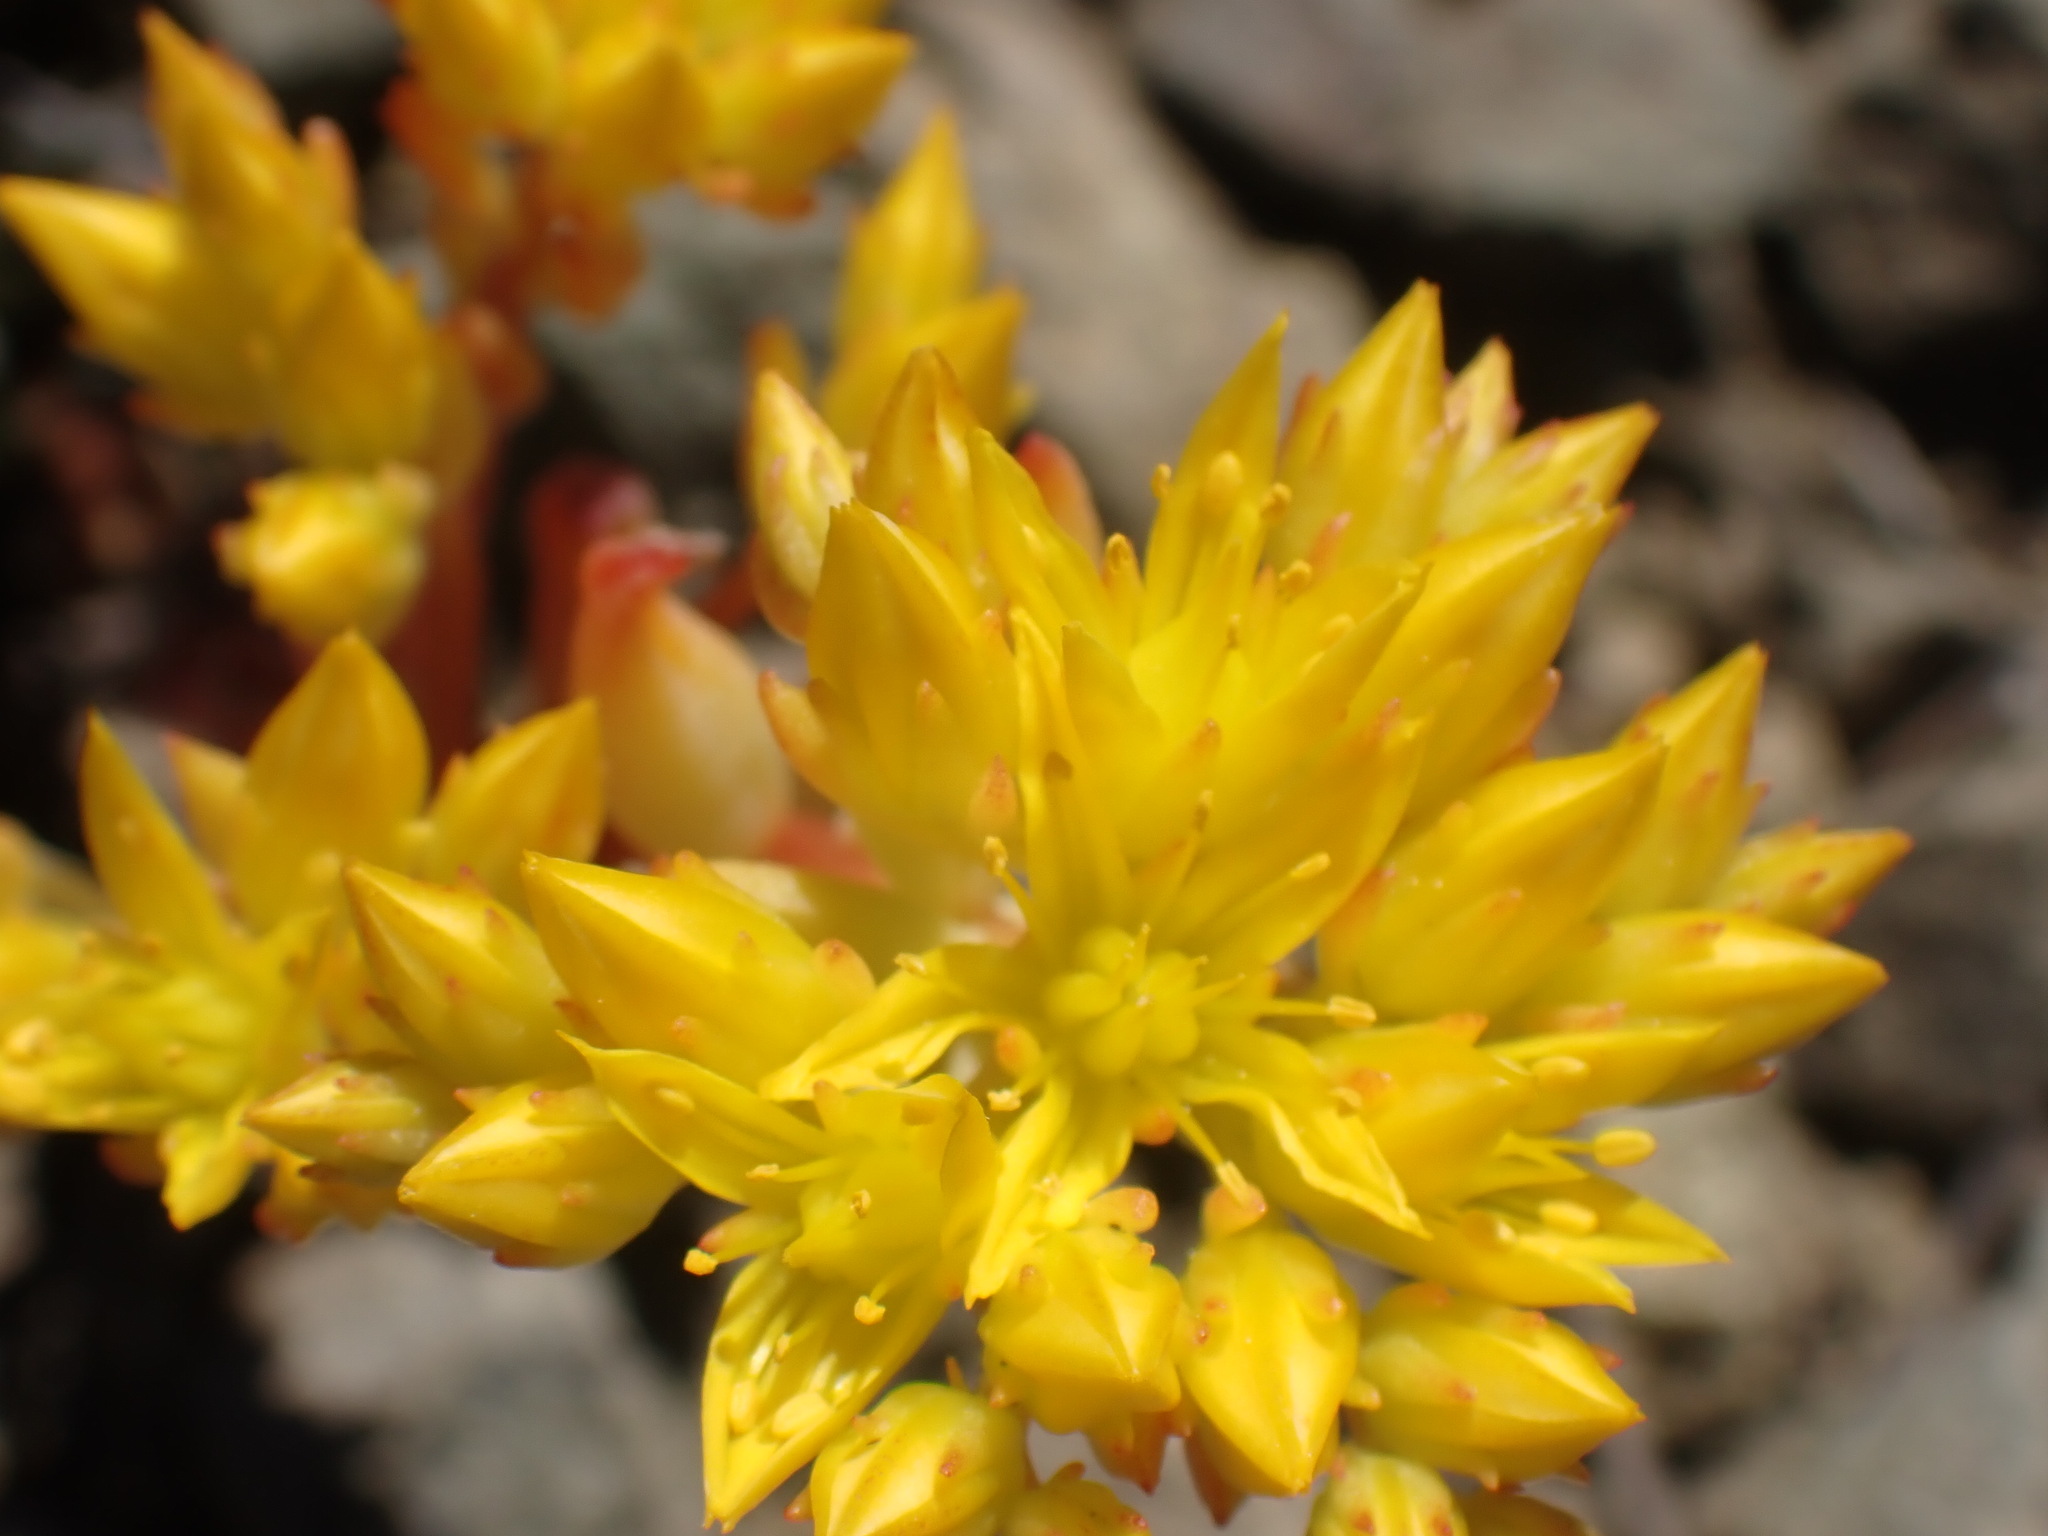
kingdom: Plantae
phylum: Tracheophyta
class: Magnoliopsida
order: Saxifragales
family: Crassulaceae
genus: Sedum
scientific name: Sedum lanceolatum
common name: Common stonecrop
